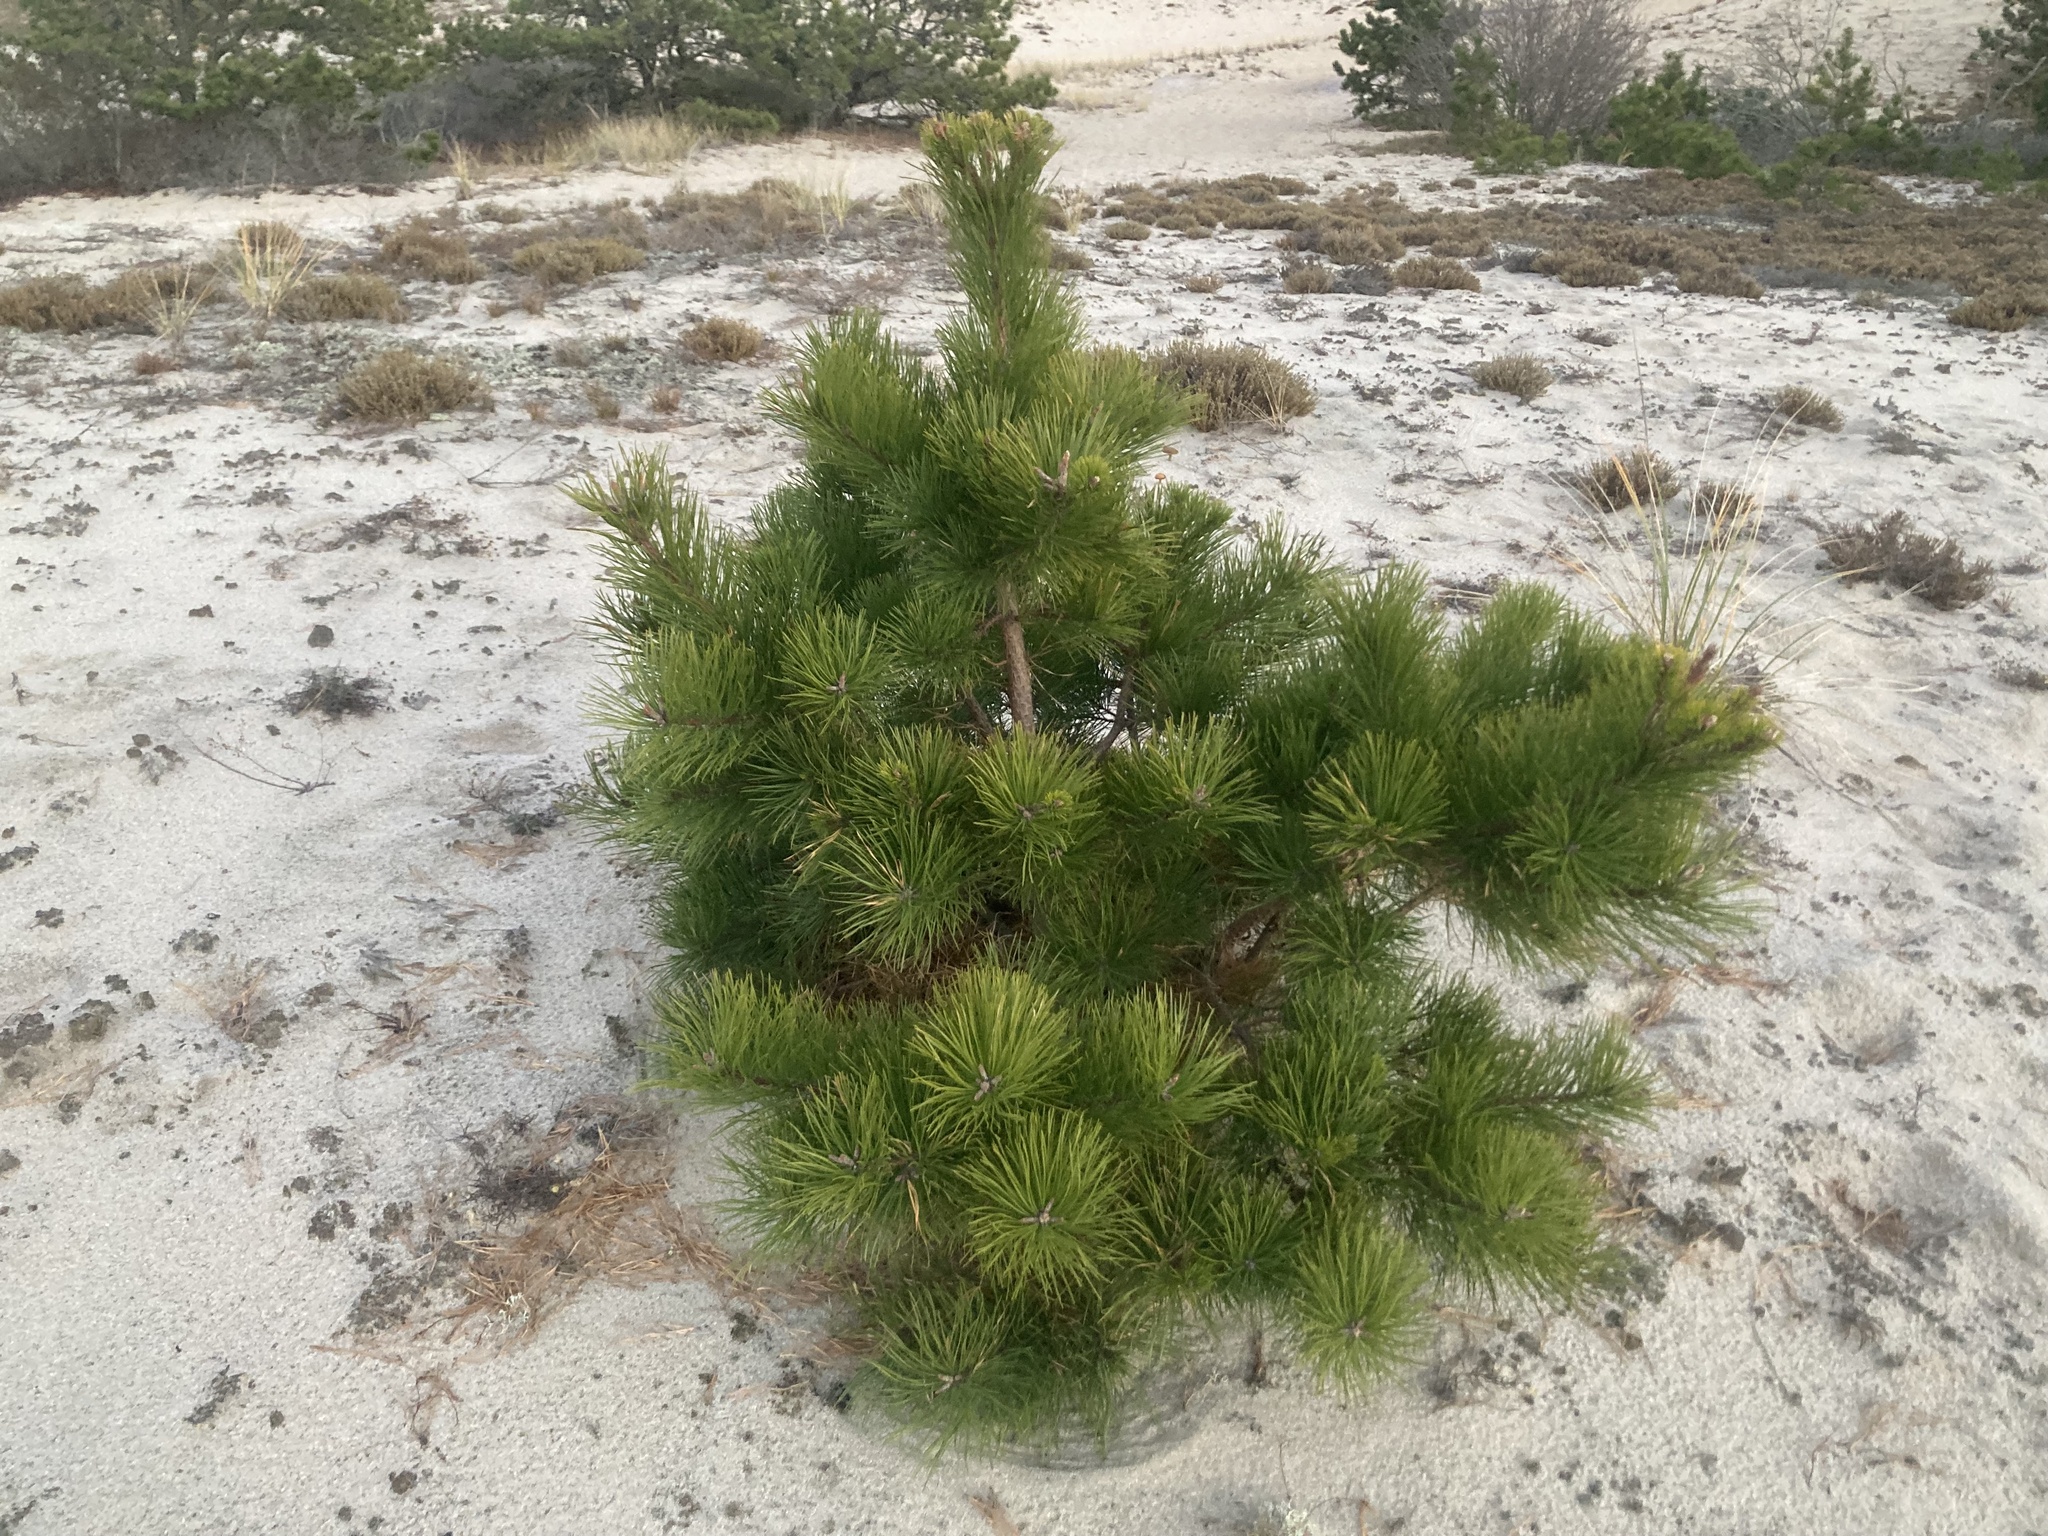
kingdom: Plantae
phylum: Tracheophyta
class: Pinopsida
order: Pinales
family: Pinaceae
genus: Pinus
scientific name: Pinus rigida
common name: Pitch pine
